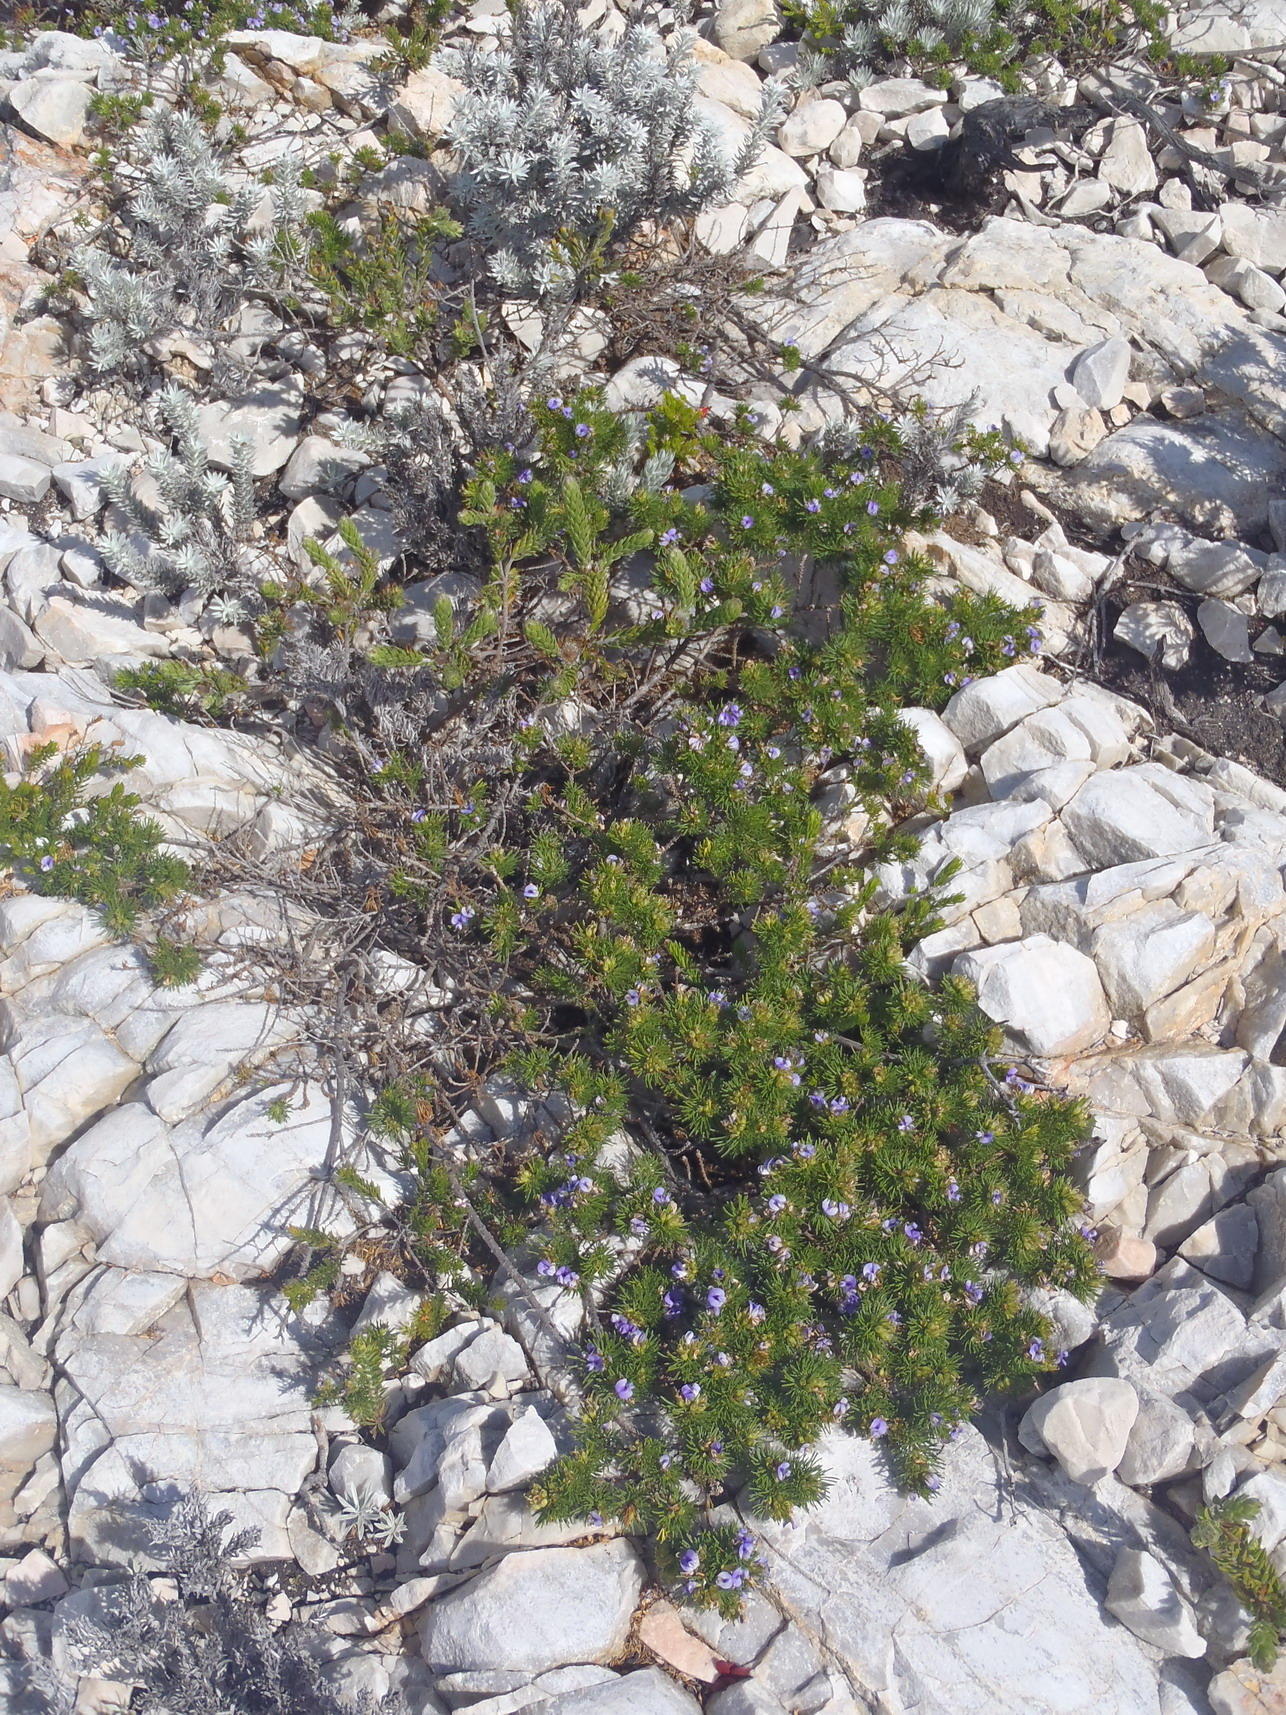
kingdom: Plantae
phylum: Tracheophyta
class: Magnoliopsida
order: Fabales
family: Fabaceae
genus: Psoralea
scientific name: Psoralea vanberkelae
